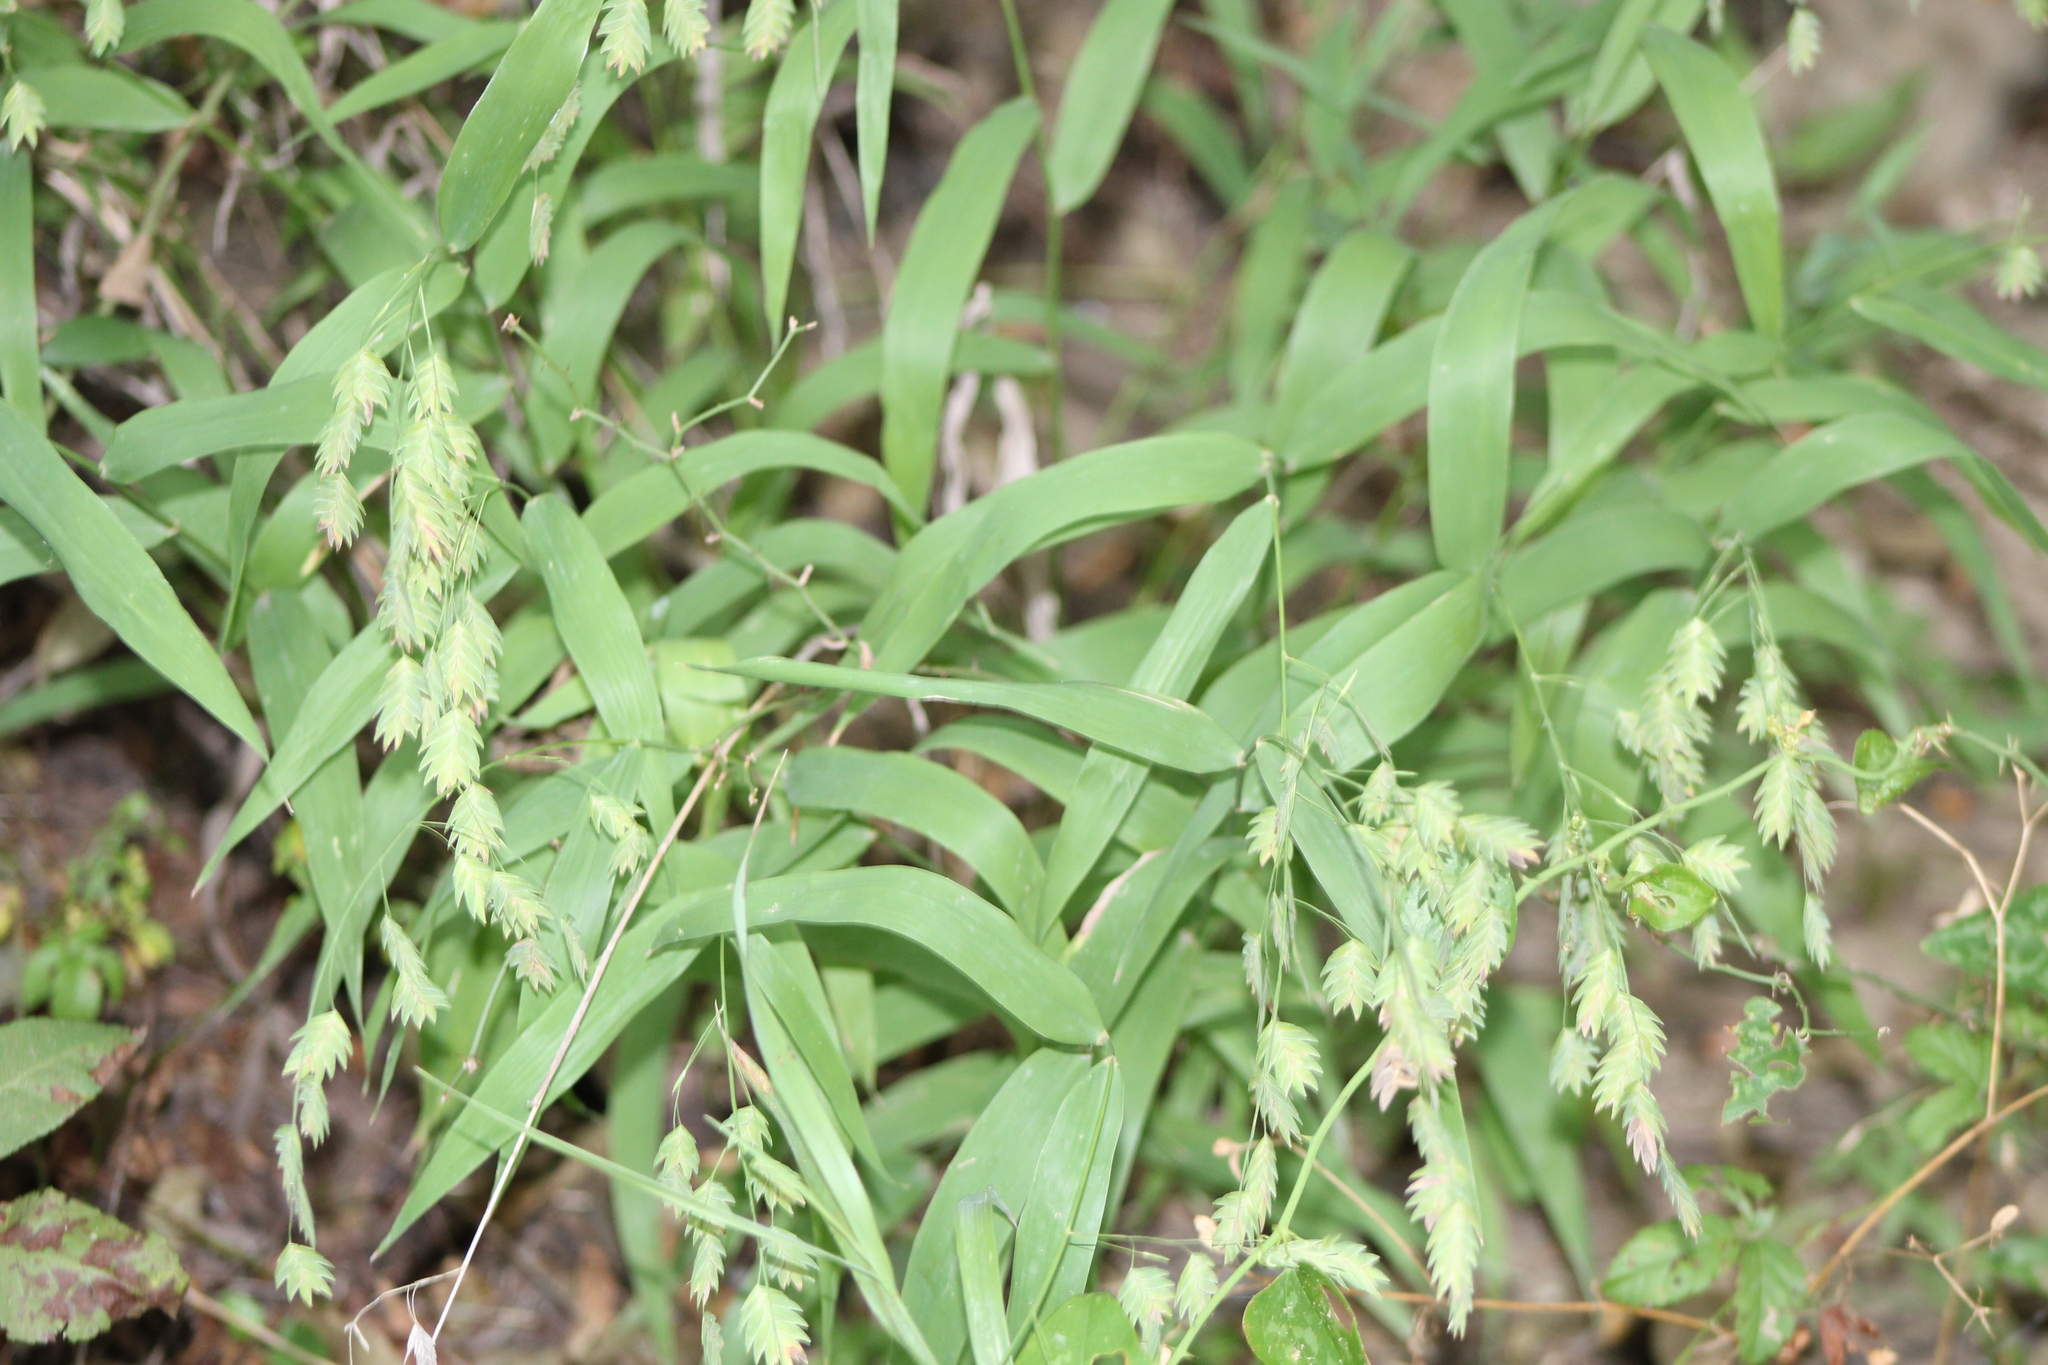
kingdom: Plantae
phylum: Tracheophyta
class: Liliopsida
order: Poales
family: Poaceae
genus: Chasmanthium
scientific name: Chasmanthium latifolium
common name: Broad-leaved chasmanthium
